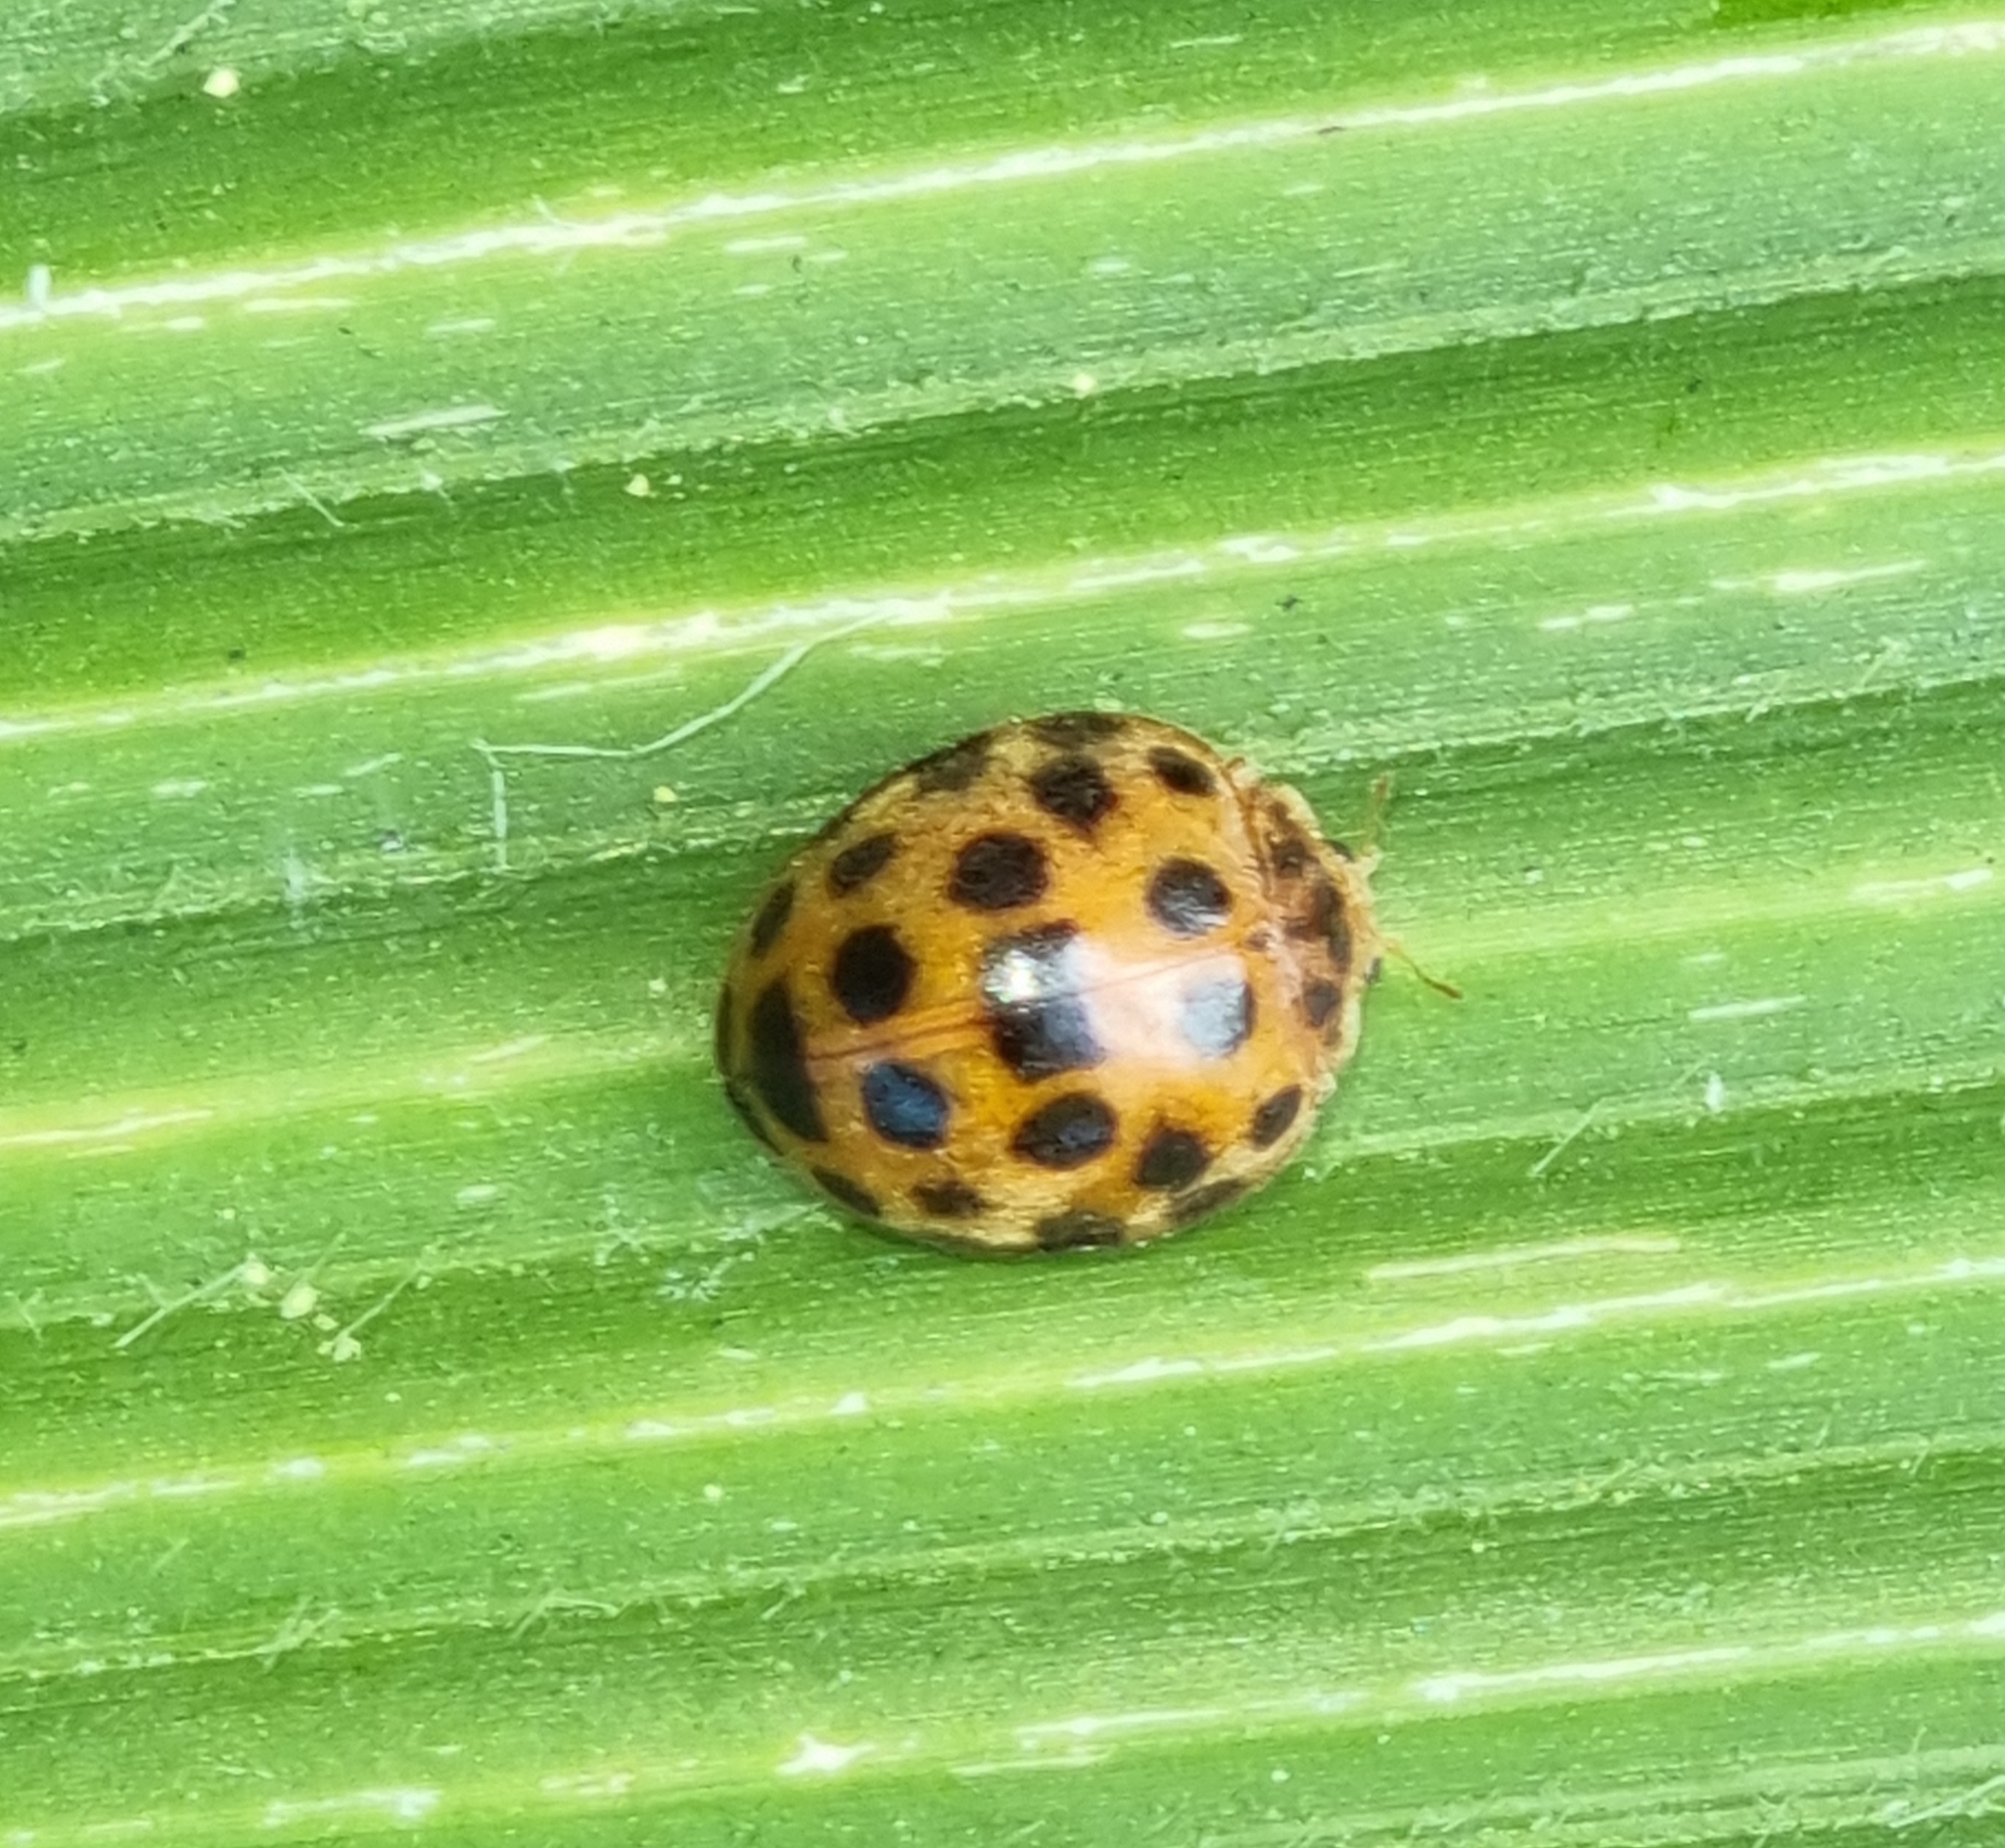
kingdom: Animalia
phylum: Arthropoda
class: Insecta
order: Coleoptera
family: Coccinellidae
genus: Henosepilachna
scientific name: Henosepilachna vigintioctopunctata
